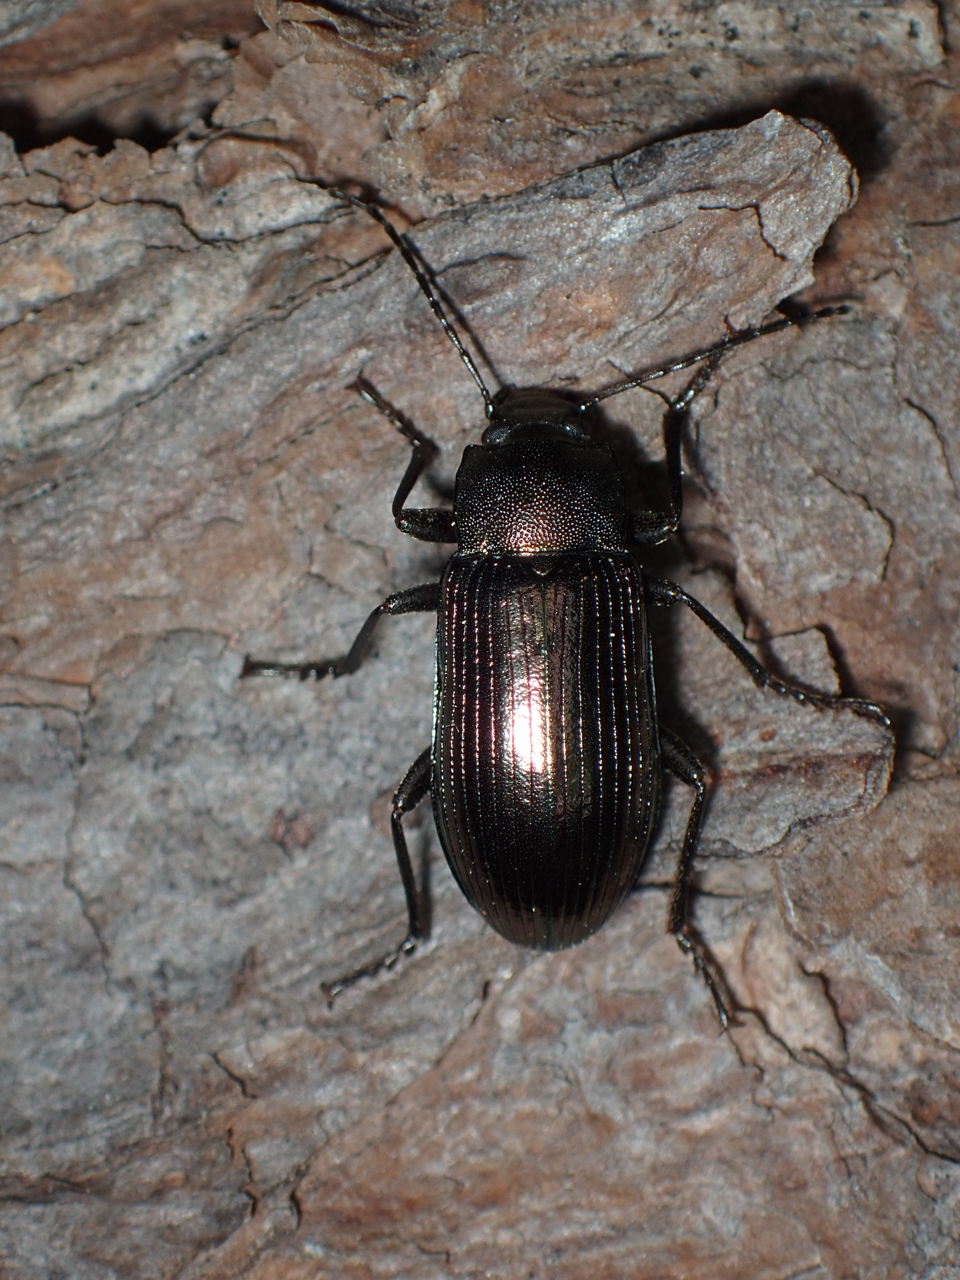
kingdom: Animalia
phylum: Arthropoda
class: Insecta
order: Coleoptera
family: Tenebrionidae
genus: Tarpela
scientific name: Tarpela undulata
